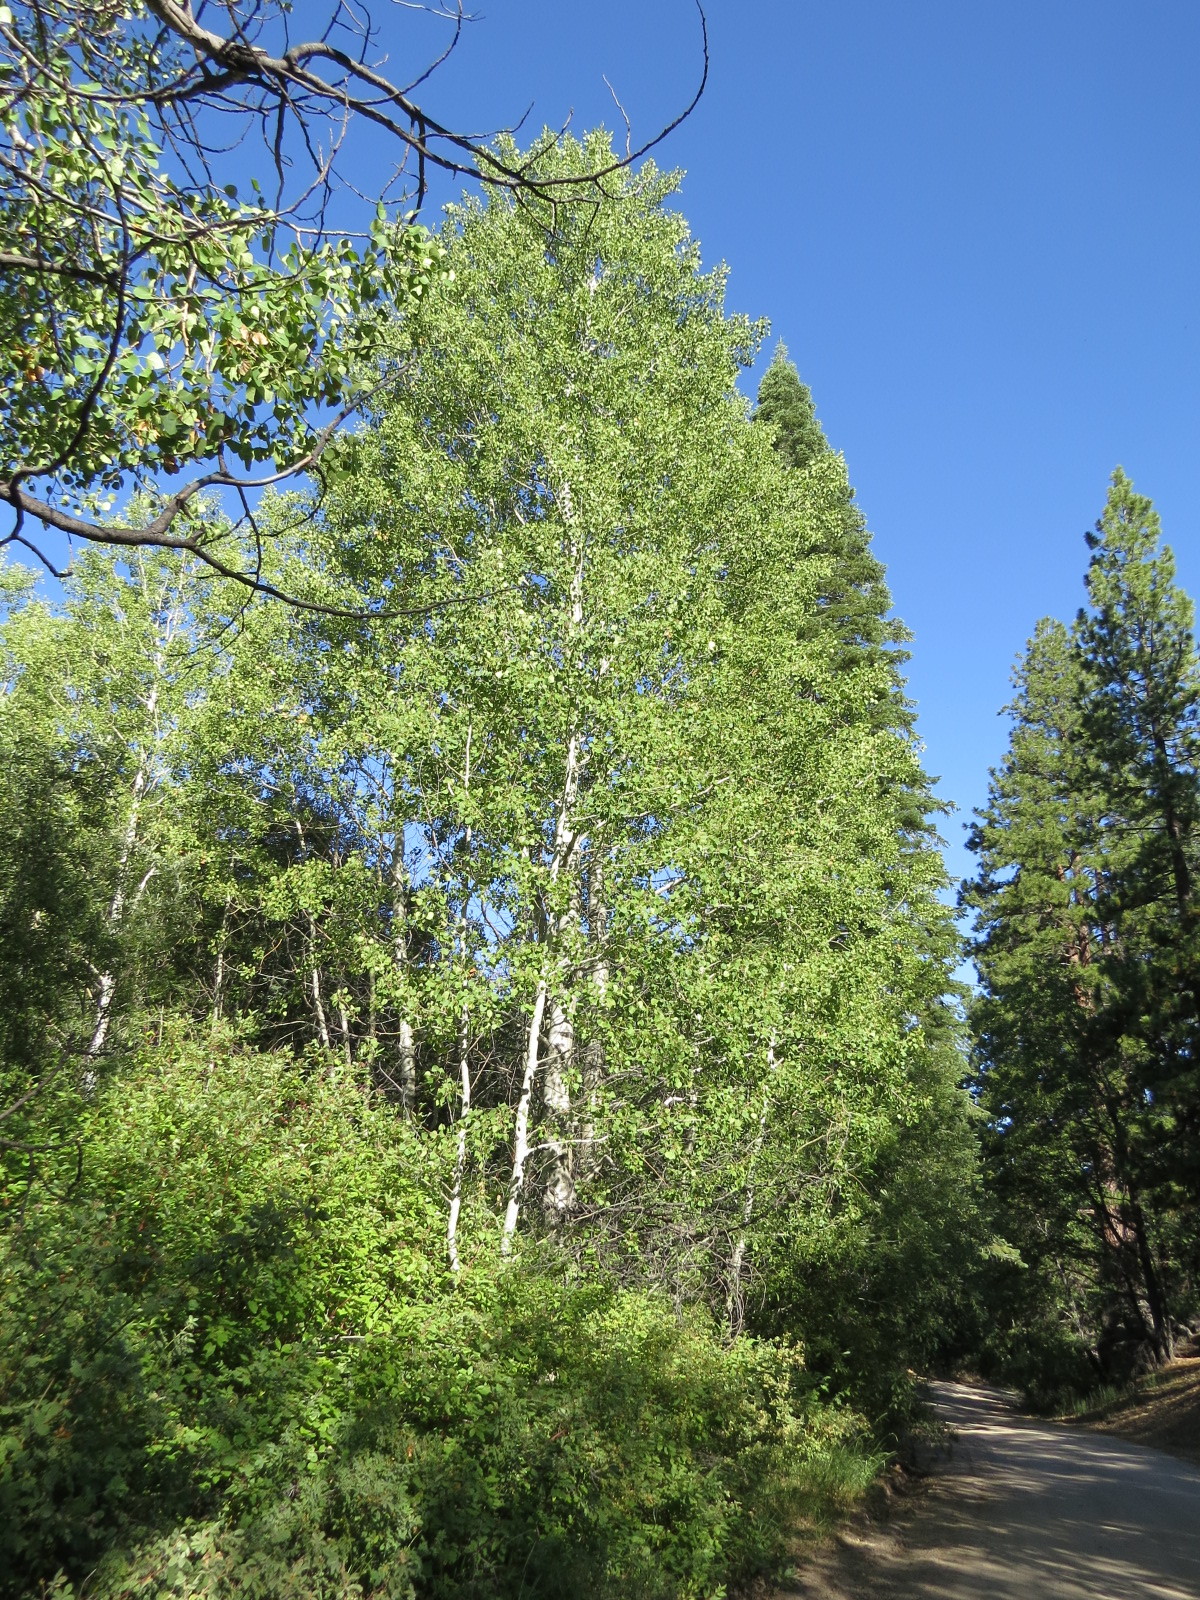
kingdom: Plantae
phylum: Tracheophyta
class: Magnoliopsida
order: Malpighiales
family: Salicaceae
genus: Populus
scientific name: Populus tremuloides
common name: Quaking aspen
